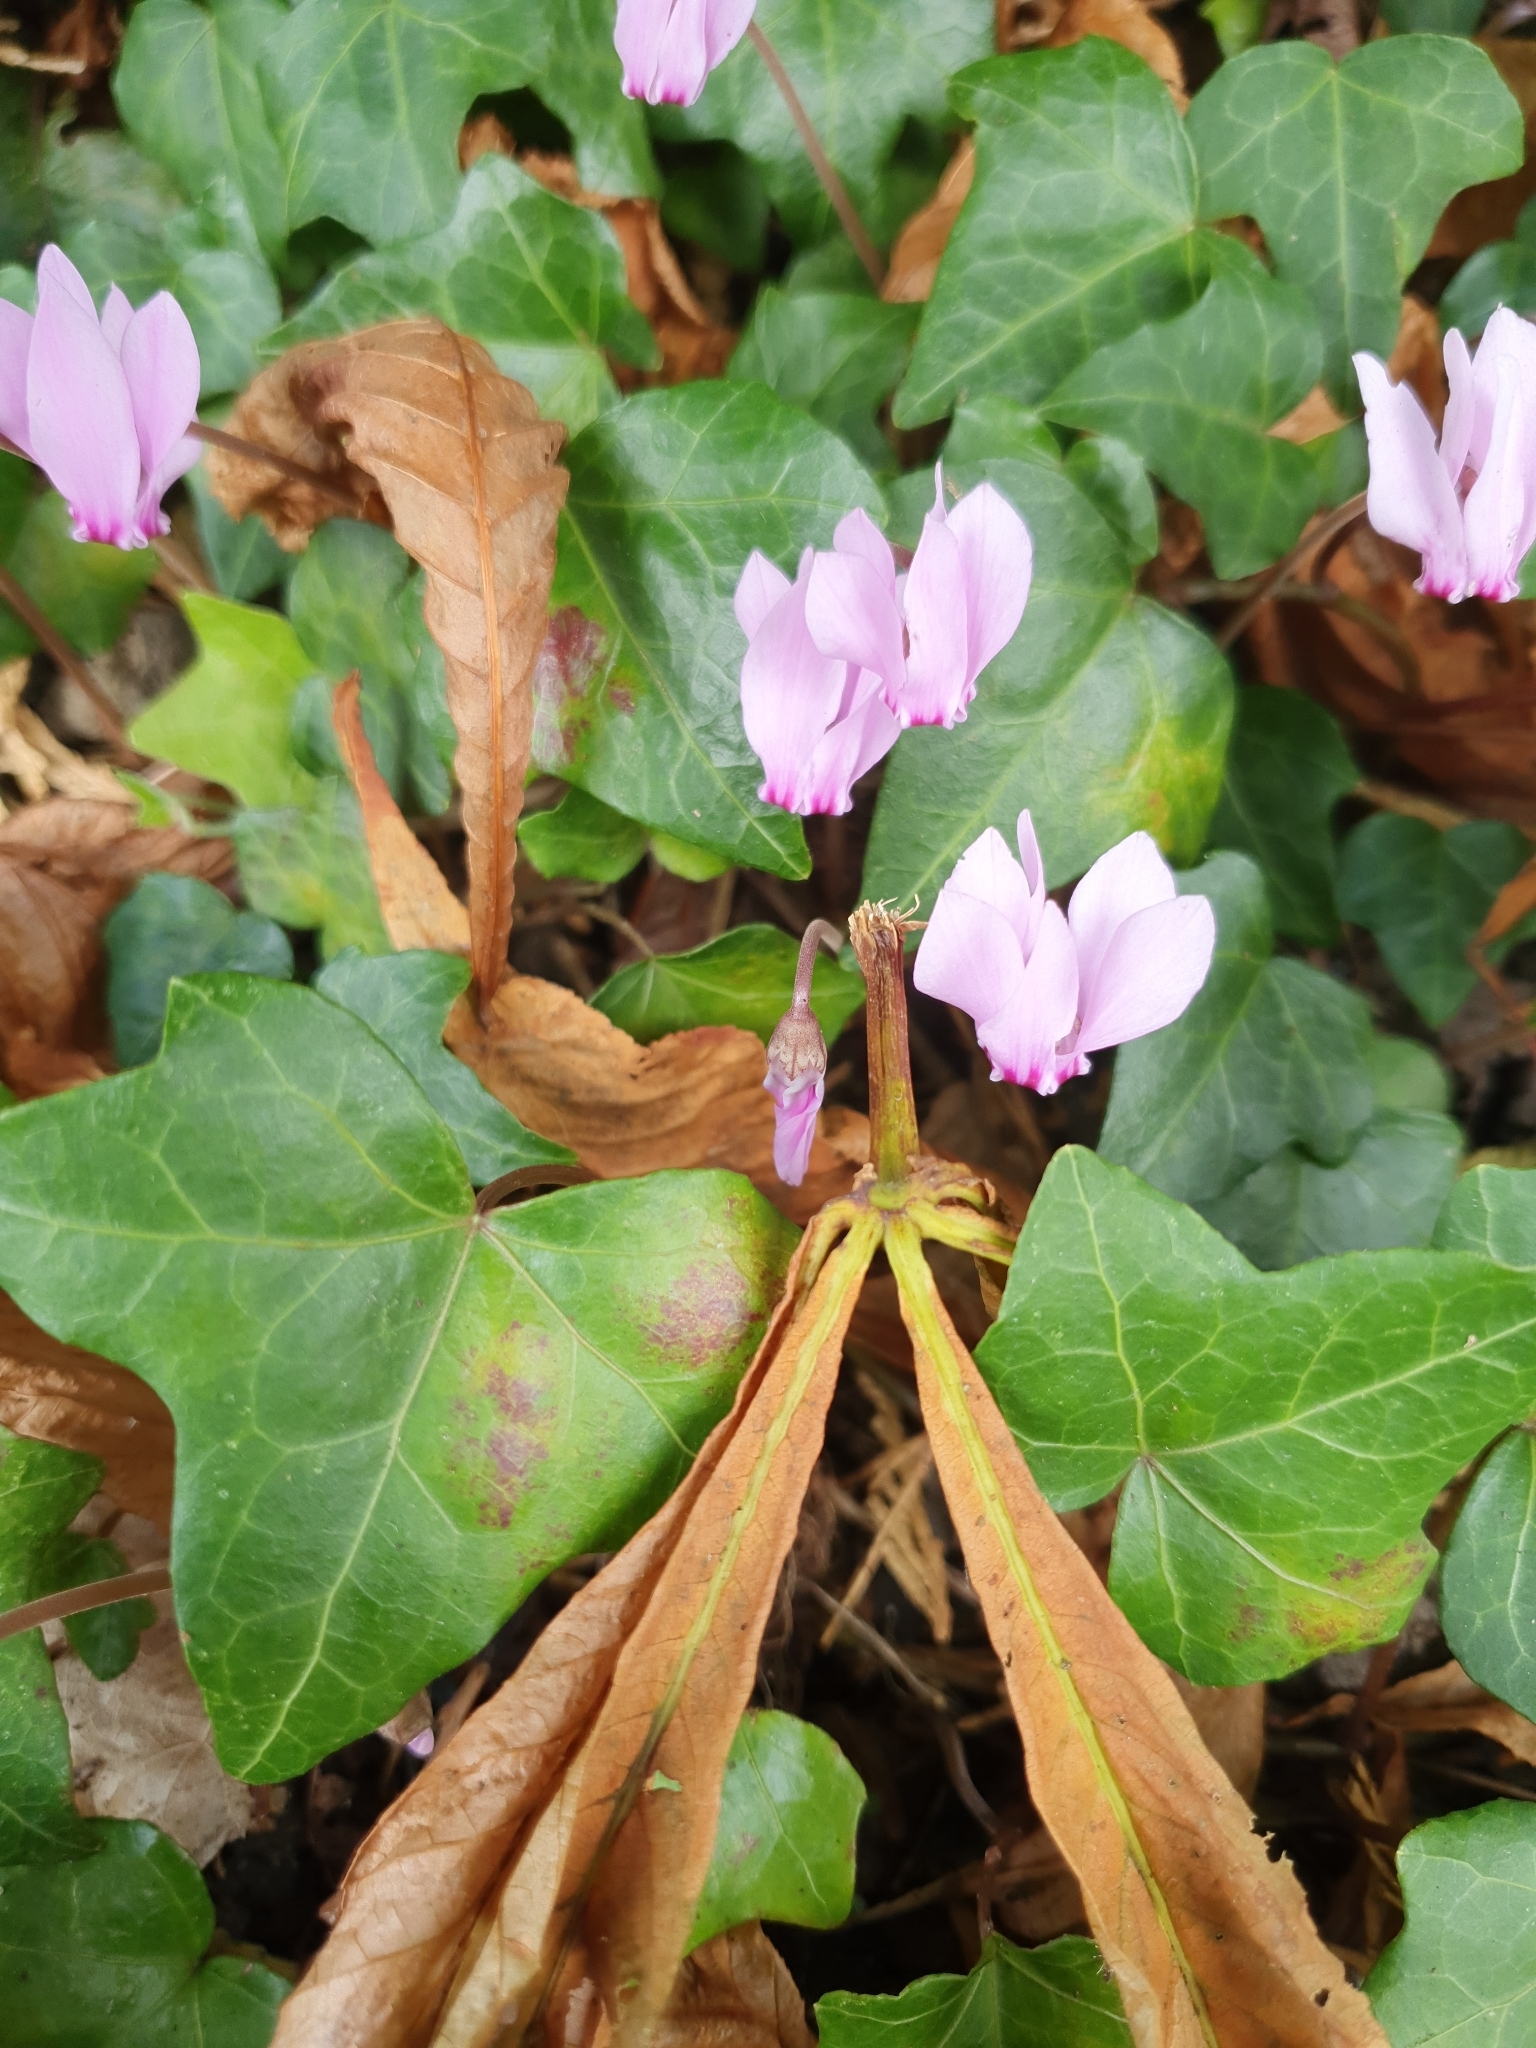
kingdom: Plantae
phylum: Tracheophyta
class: Magnoliopsida
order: Ericales
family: Primulaceae
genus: Cyclamen
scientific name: Cyclamen hederifolium
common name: Sowbread
